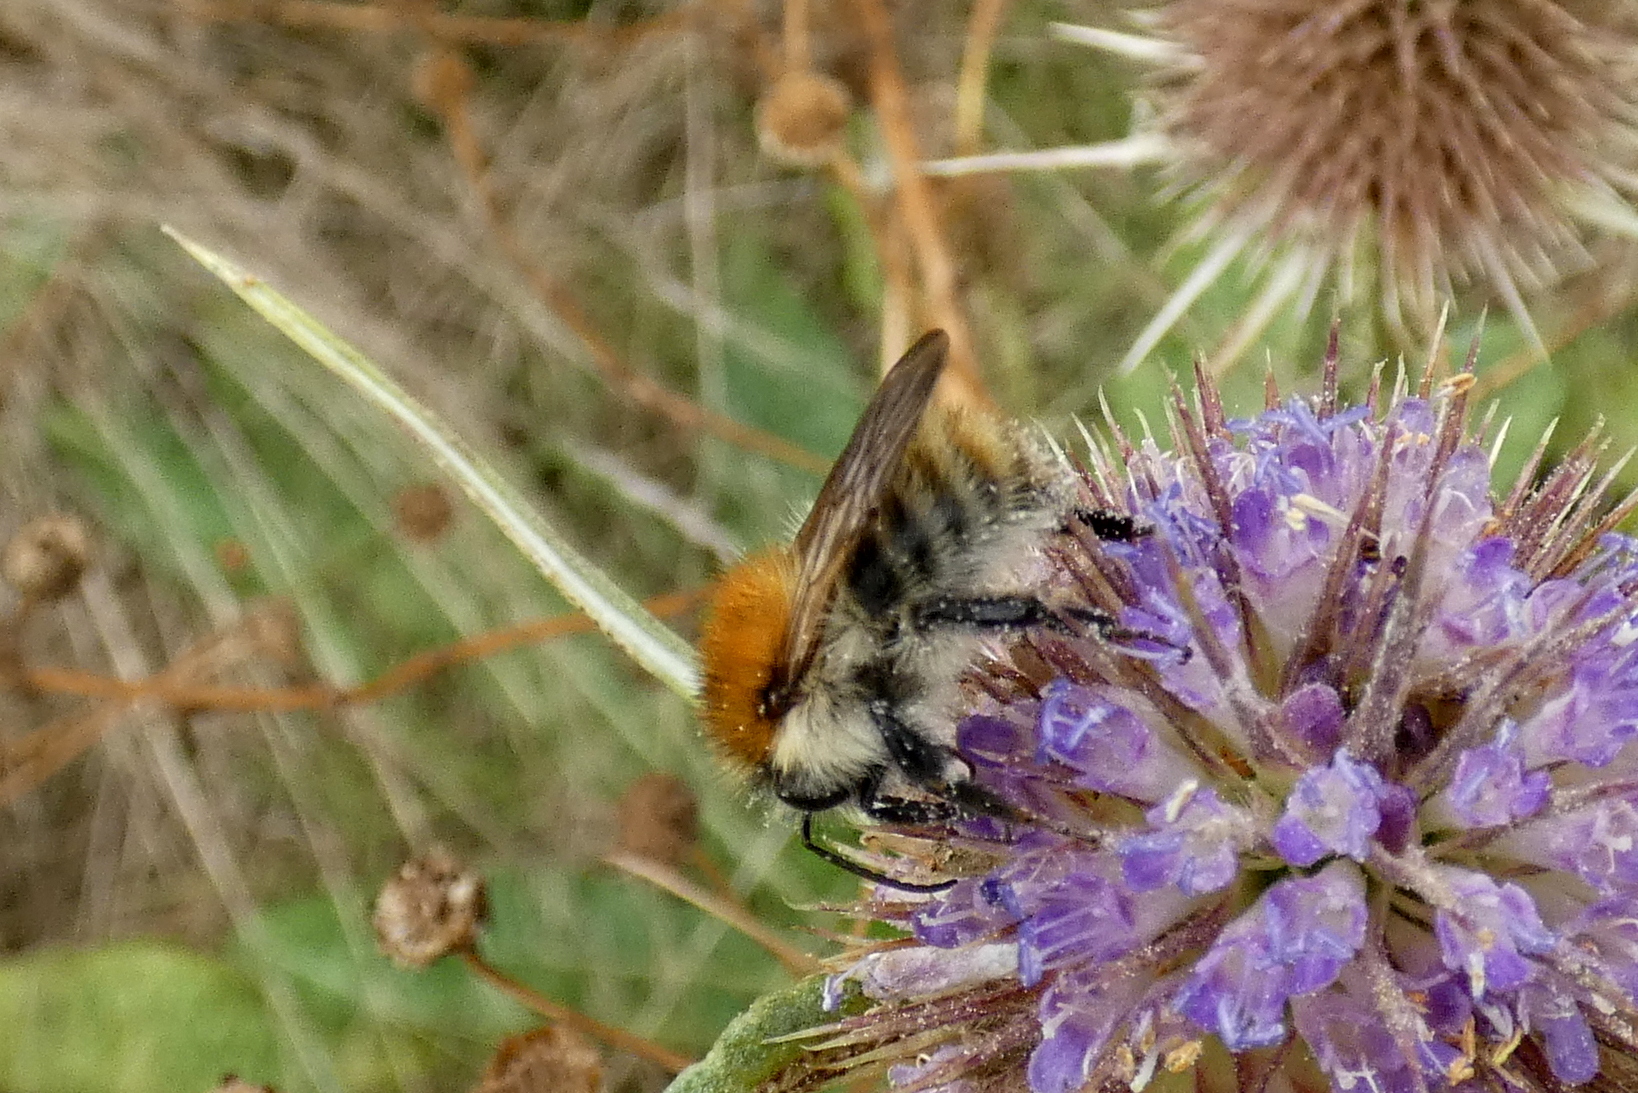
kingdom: Animalia
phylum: Arthropoda
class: Insecta
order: Hymenoptera
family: Apidae
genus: Bombus
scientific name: Bombus pascuorum
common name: Common carder bee
